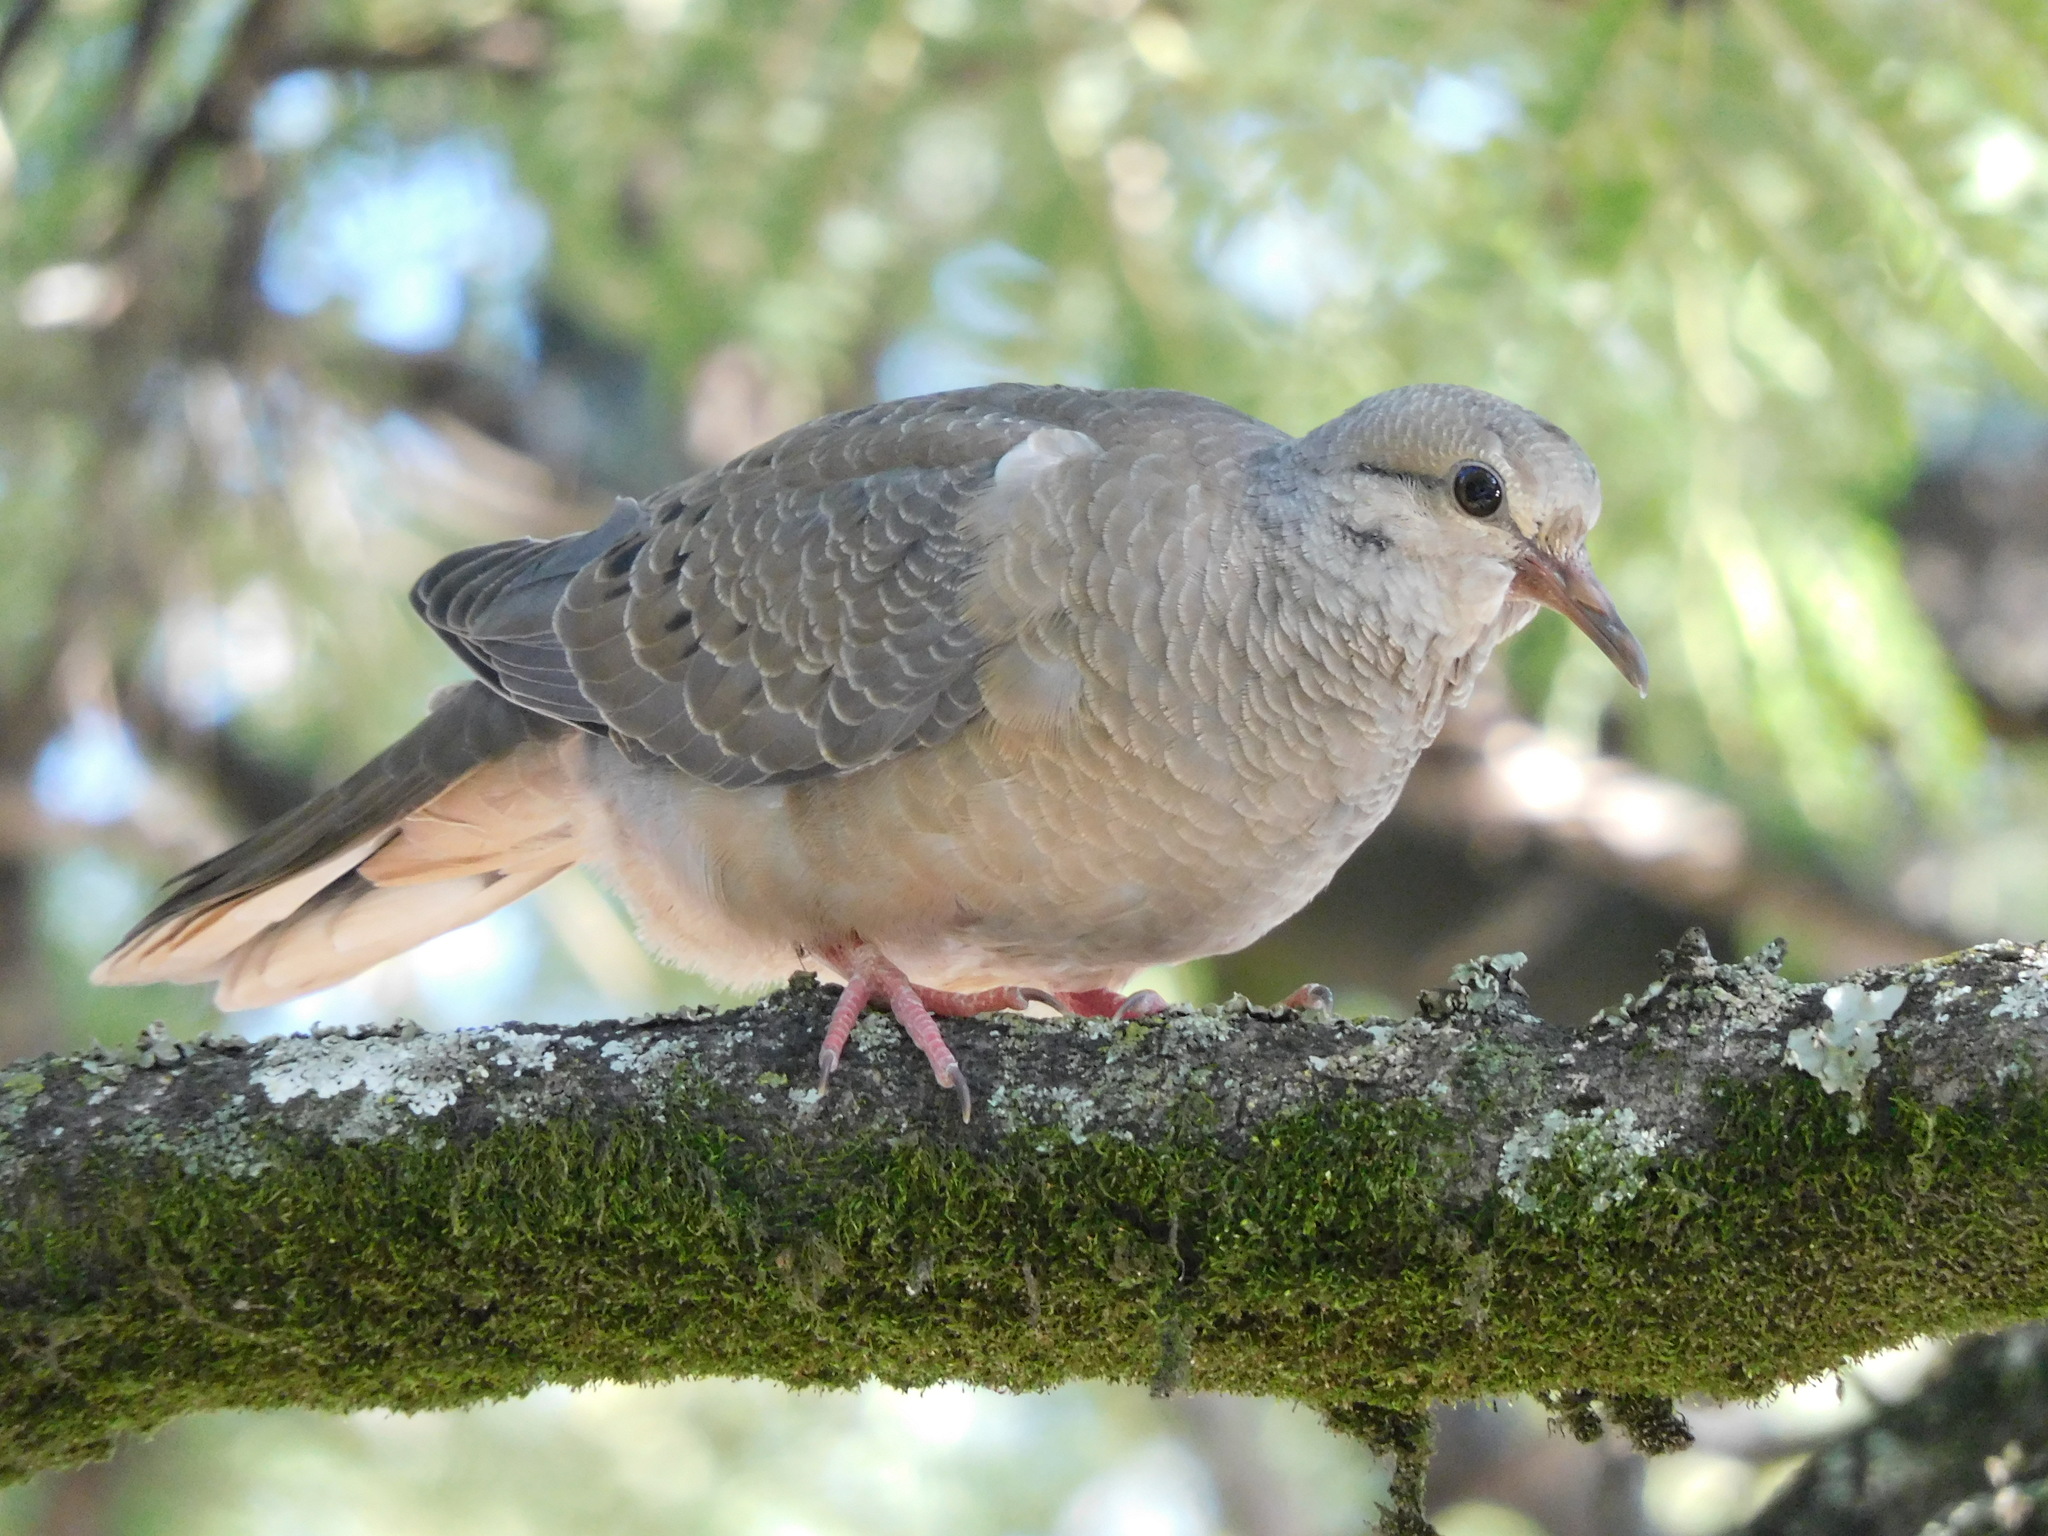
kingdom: Animalia
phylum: Chordata
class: Aves
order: Columbiformes
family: Columbidae
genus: Zenaida
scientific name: Zenaida auriculata
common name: Eared dove
